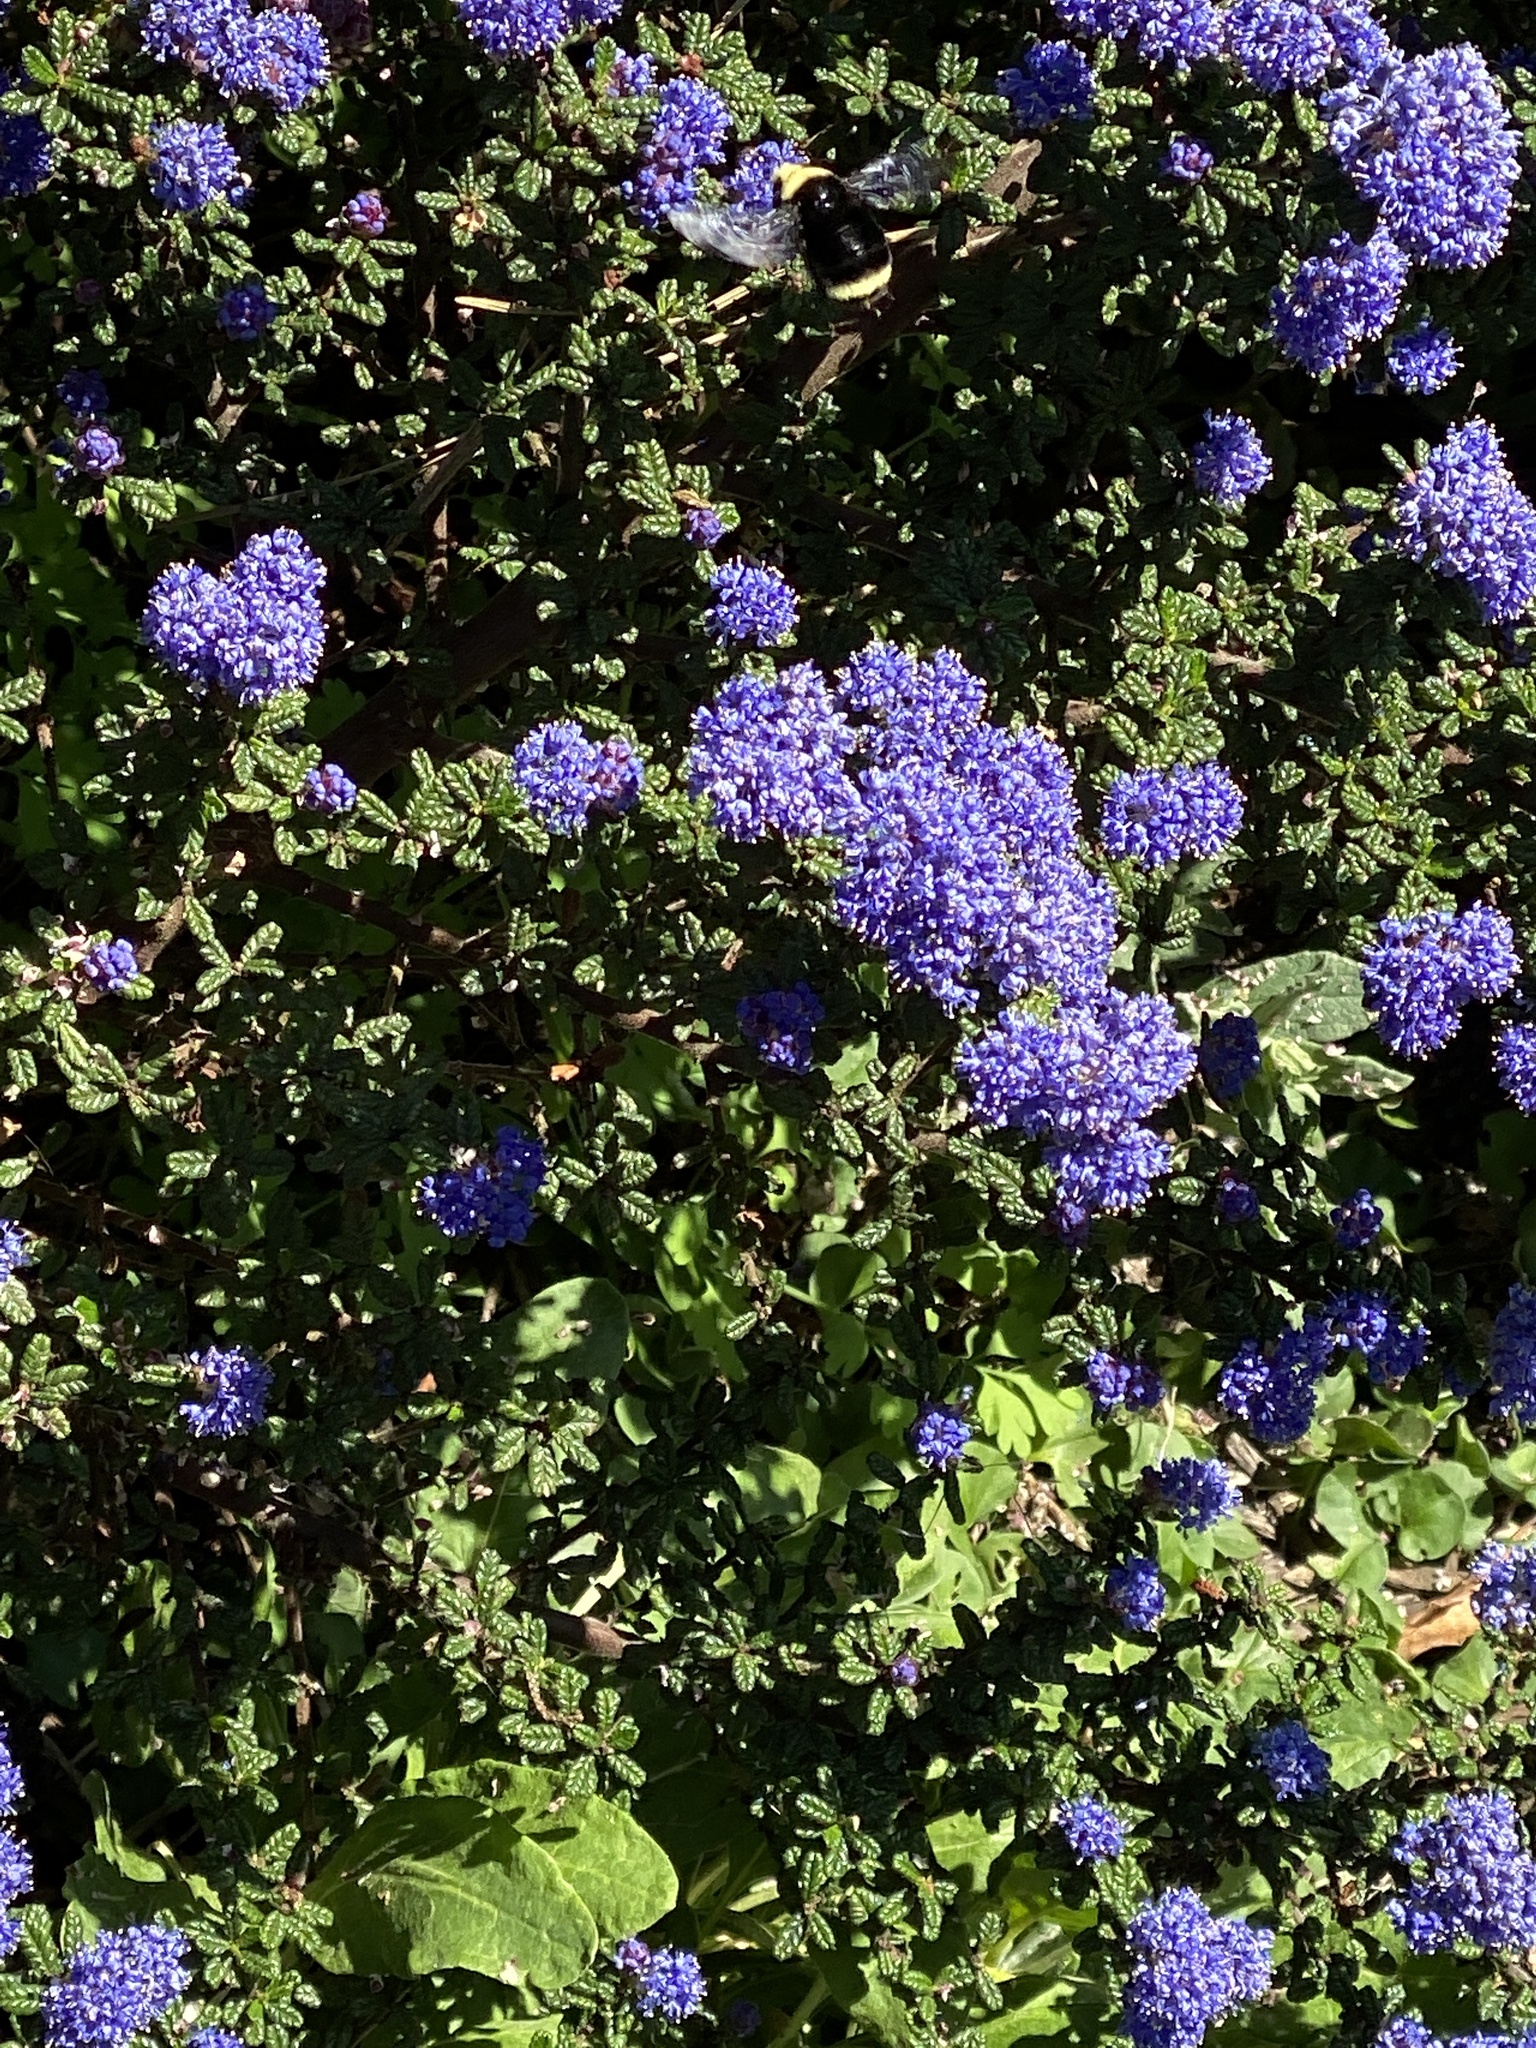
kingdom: Animalia
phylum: Arthropoda
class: Insecta
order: Hymenoptera
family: Apidae
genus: Pyrobombus
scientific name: Pyrobombus
